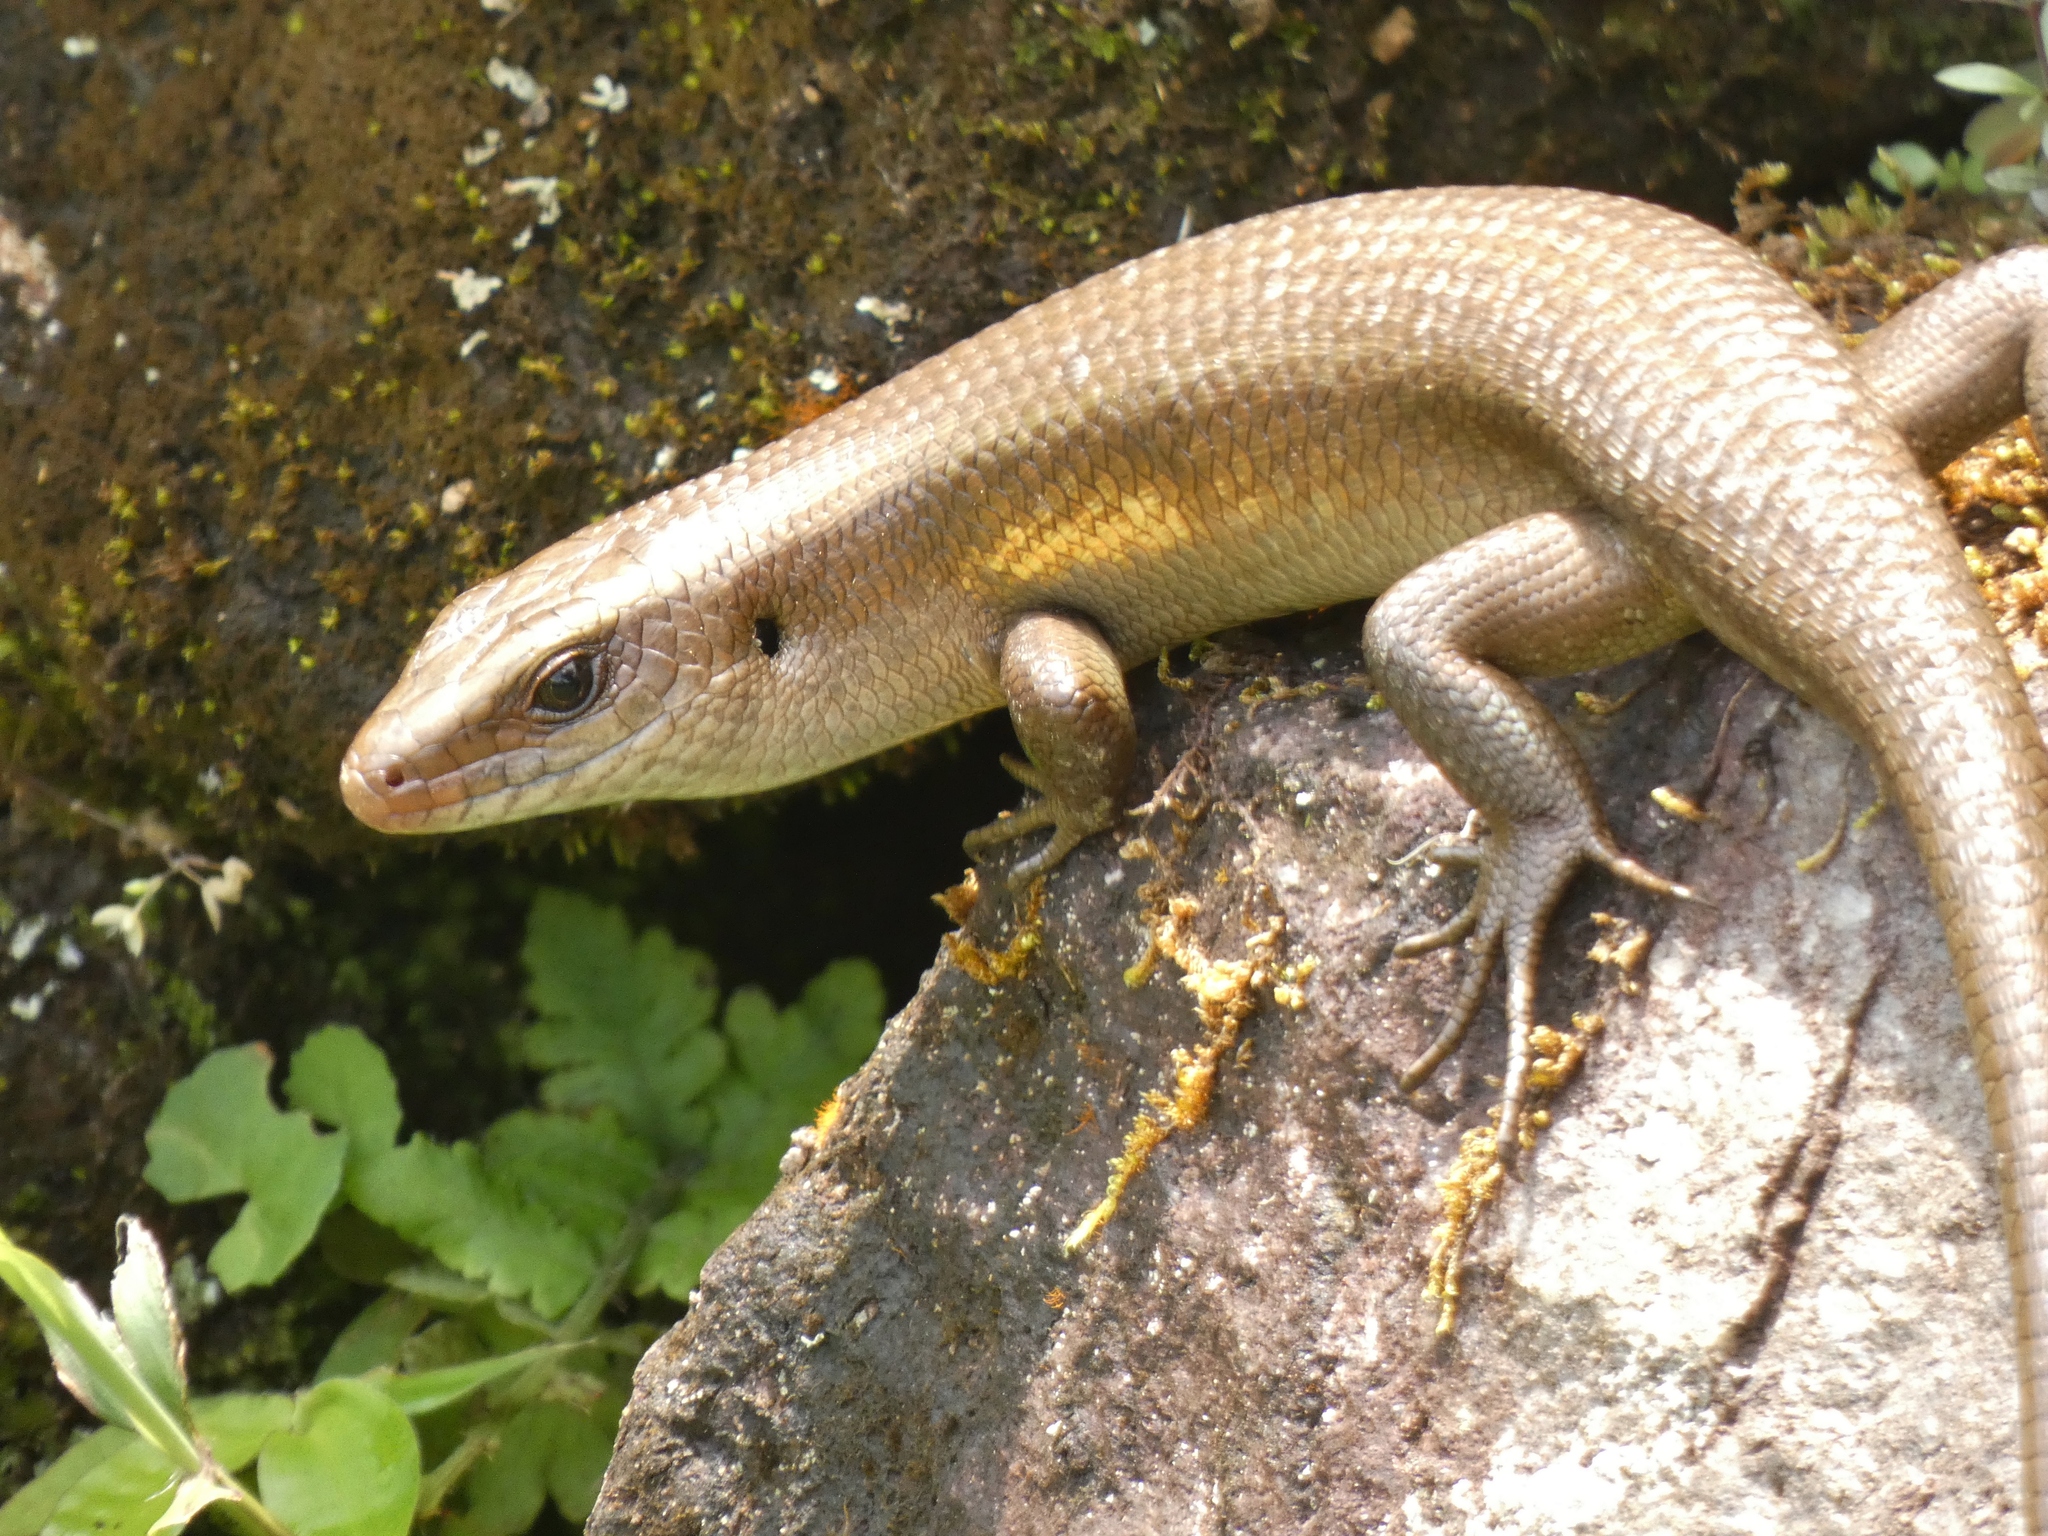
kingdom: Animalia
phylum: Chordata
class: Squamata
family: Scincidae
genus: Eutropis
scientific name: Eutropis multifasciata
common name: Common mabuya
